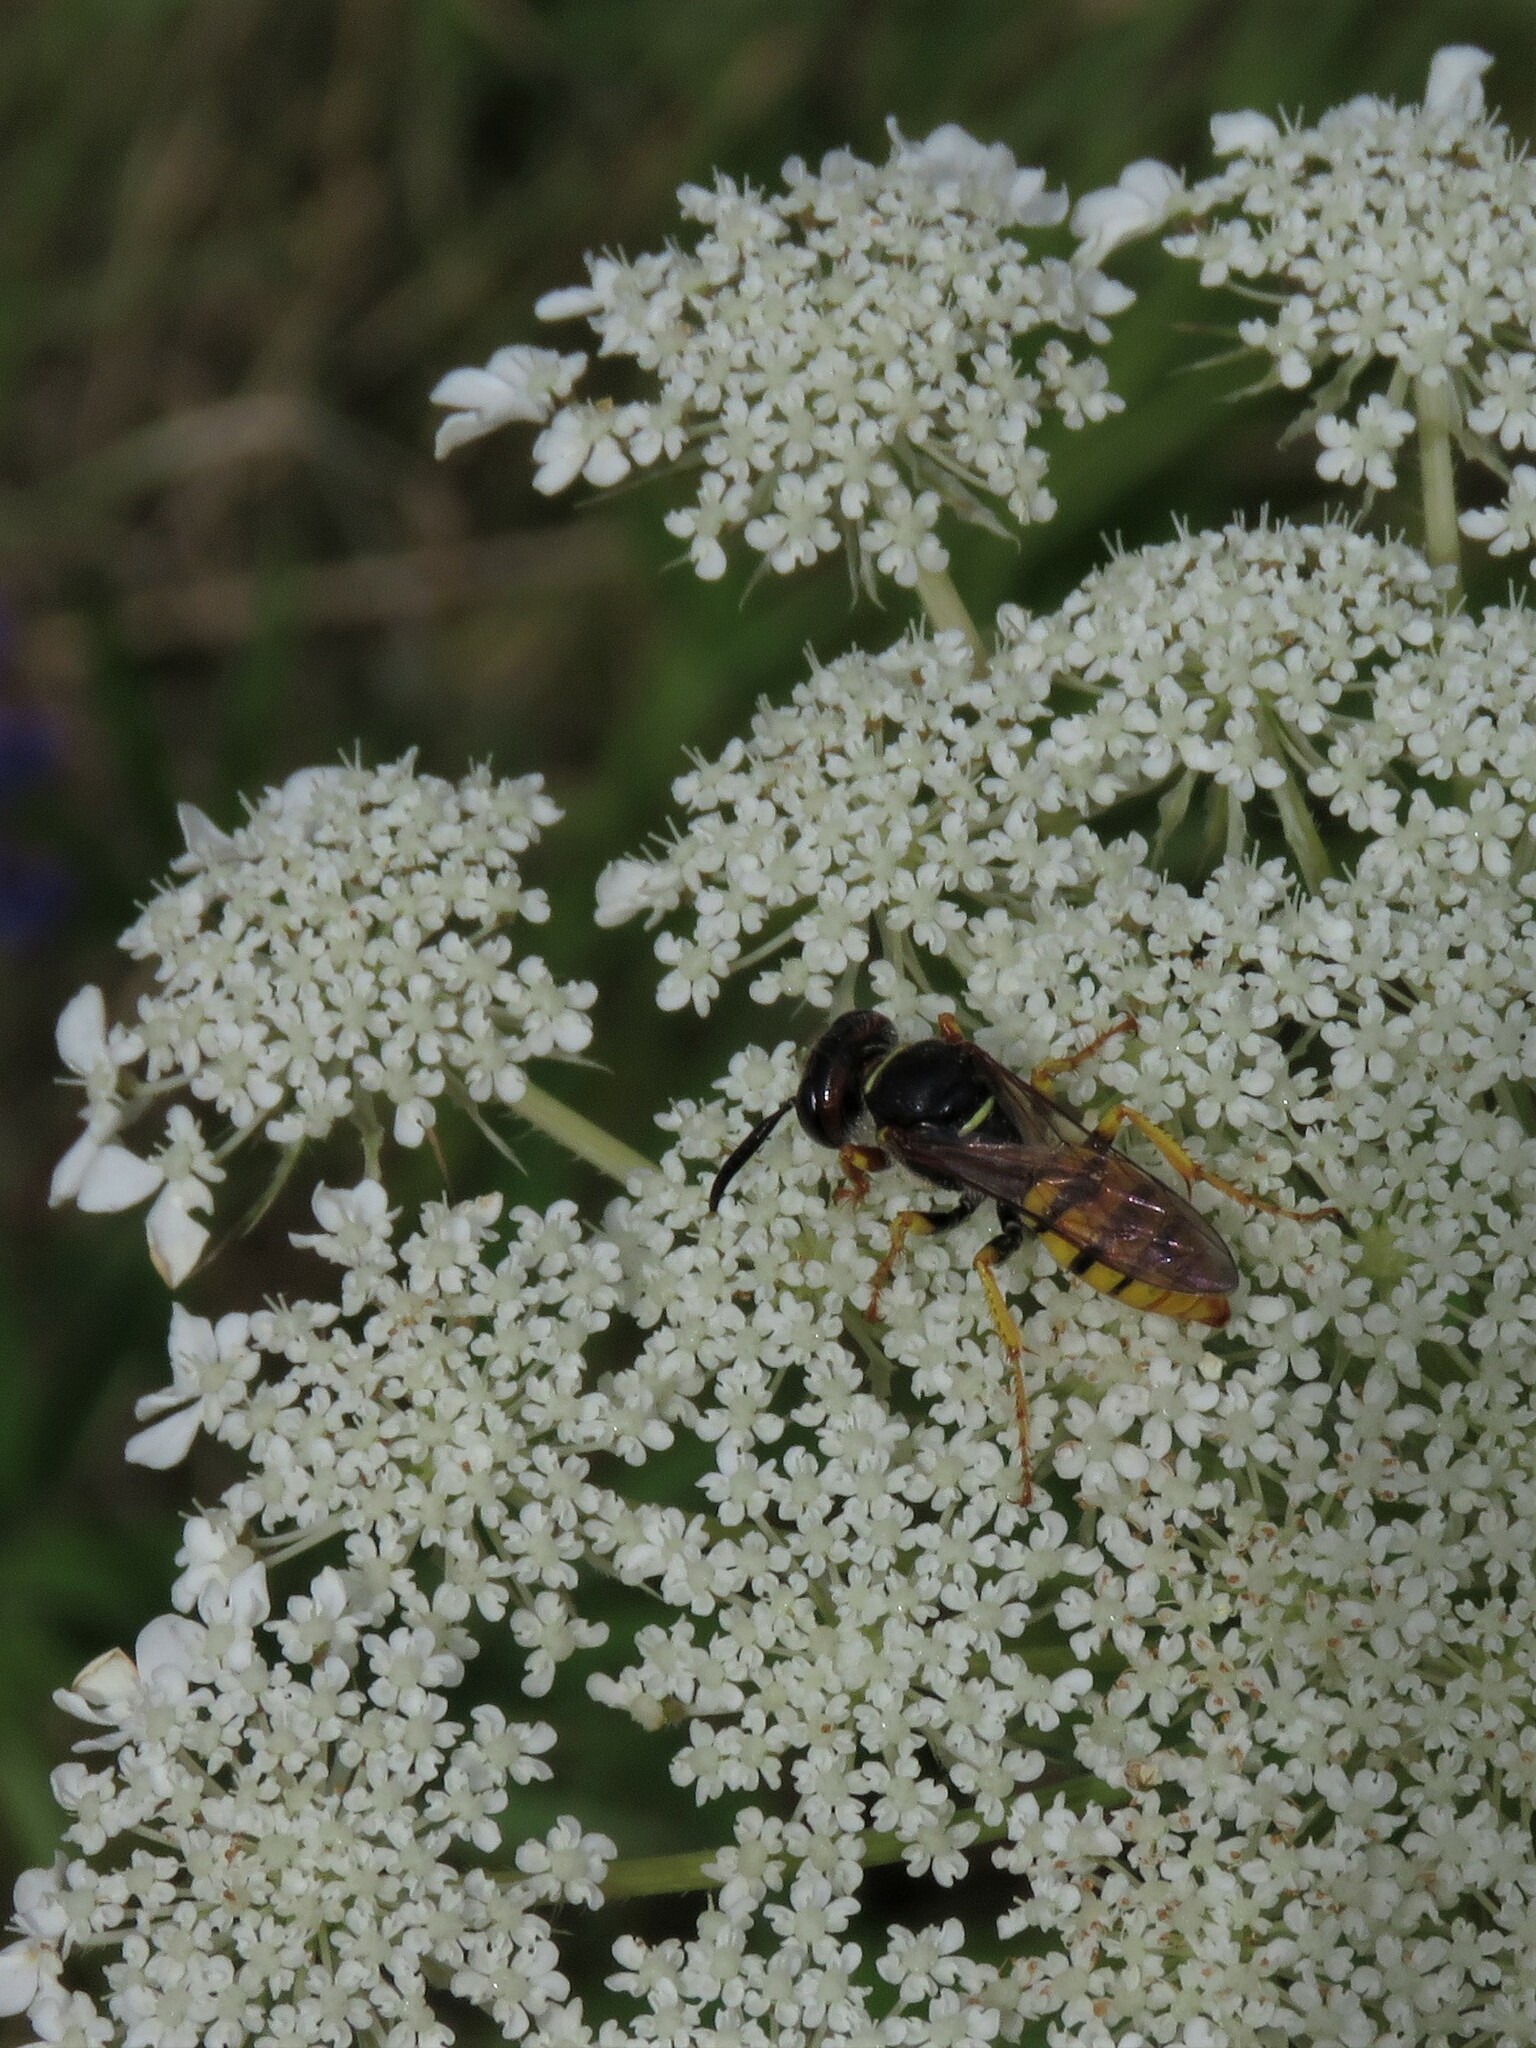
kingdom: Animalia
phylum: Arthropoda
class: Insecta
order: Hymenoptera
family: Crabronidae
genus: Philanthus
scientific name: Philanthus triangulum
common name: Bee wolf
